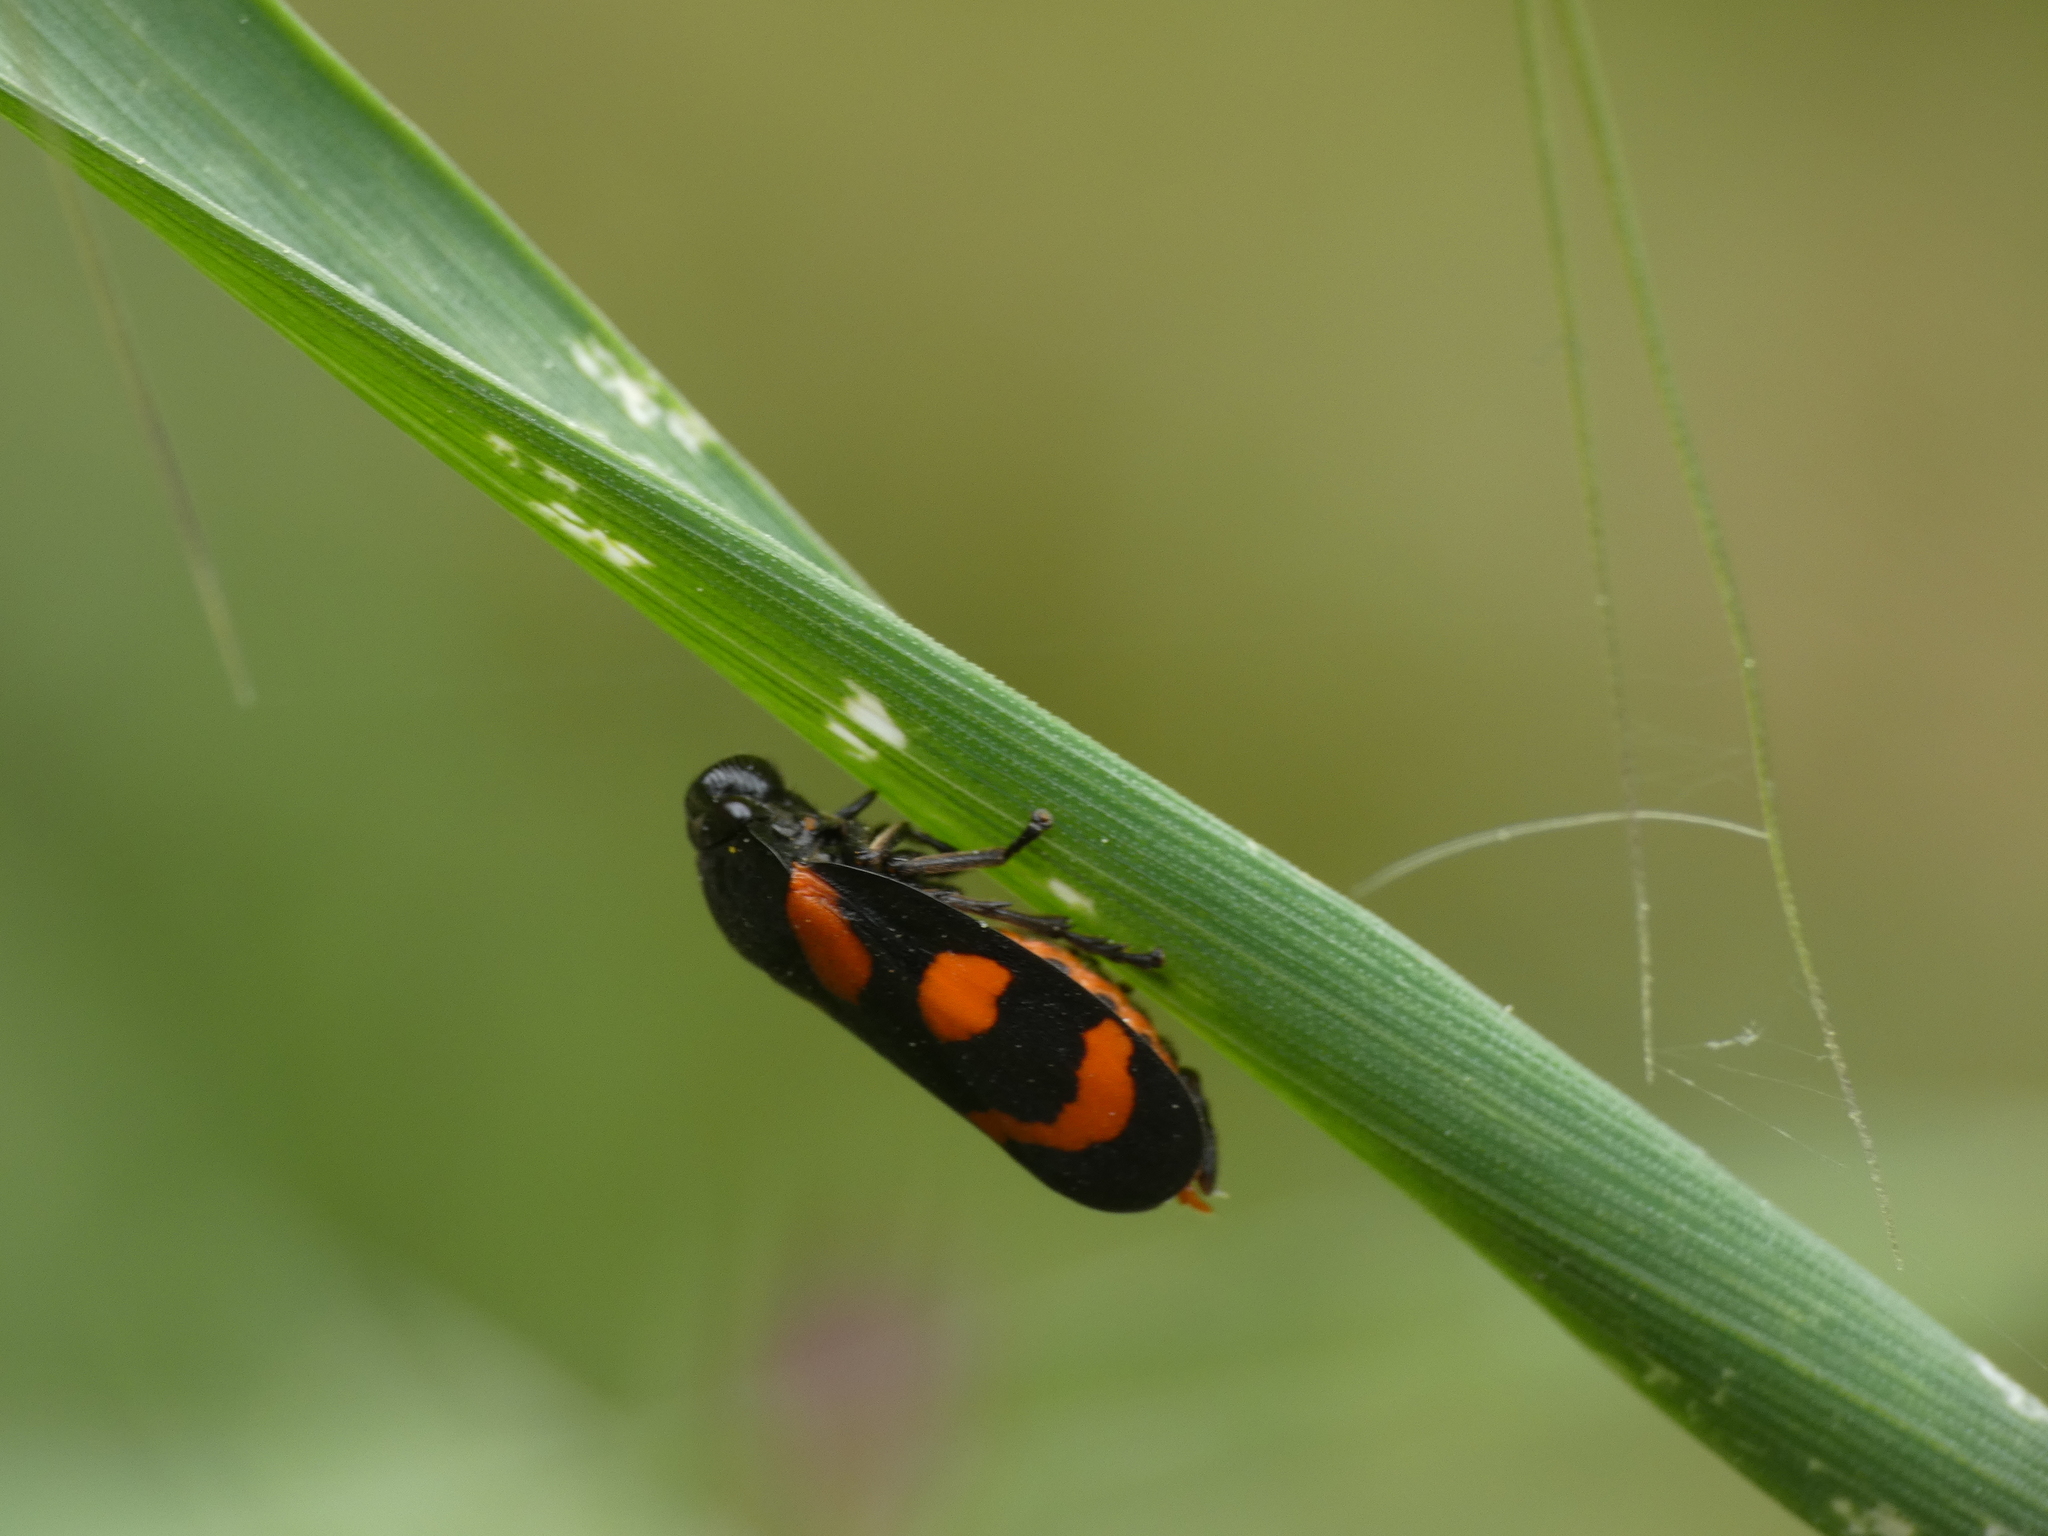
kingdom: Animalia
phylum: Arthropoda
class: Insecta
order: Hemiptera
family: Cercopidae
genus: Cercopis
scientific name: Cercopis vulnerata
